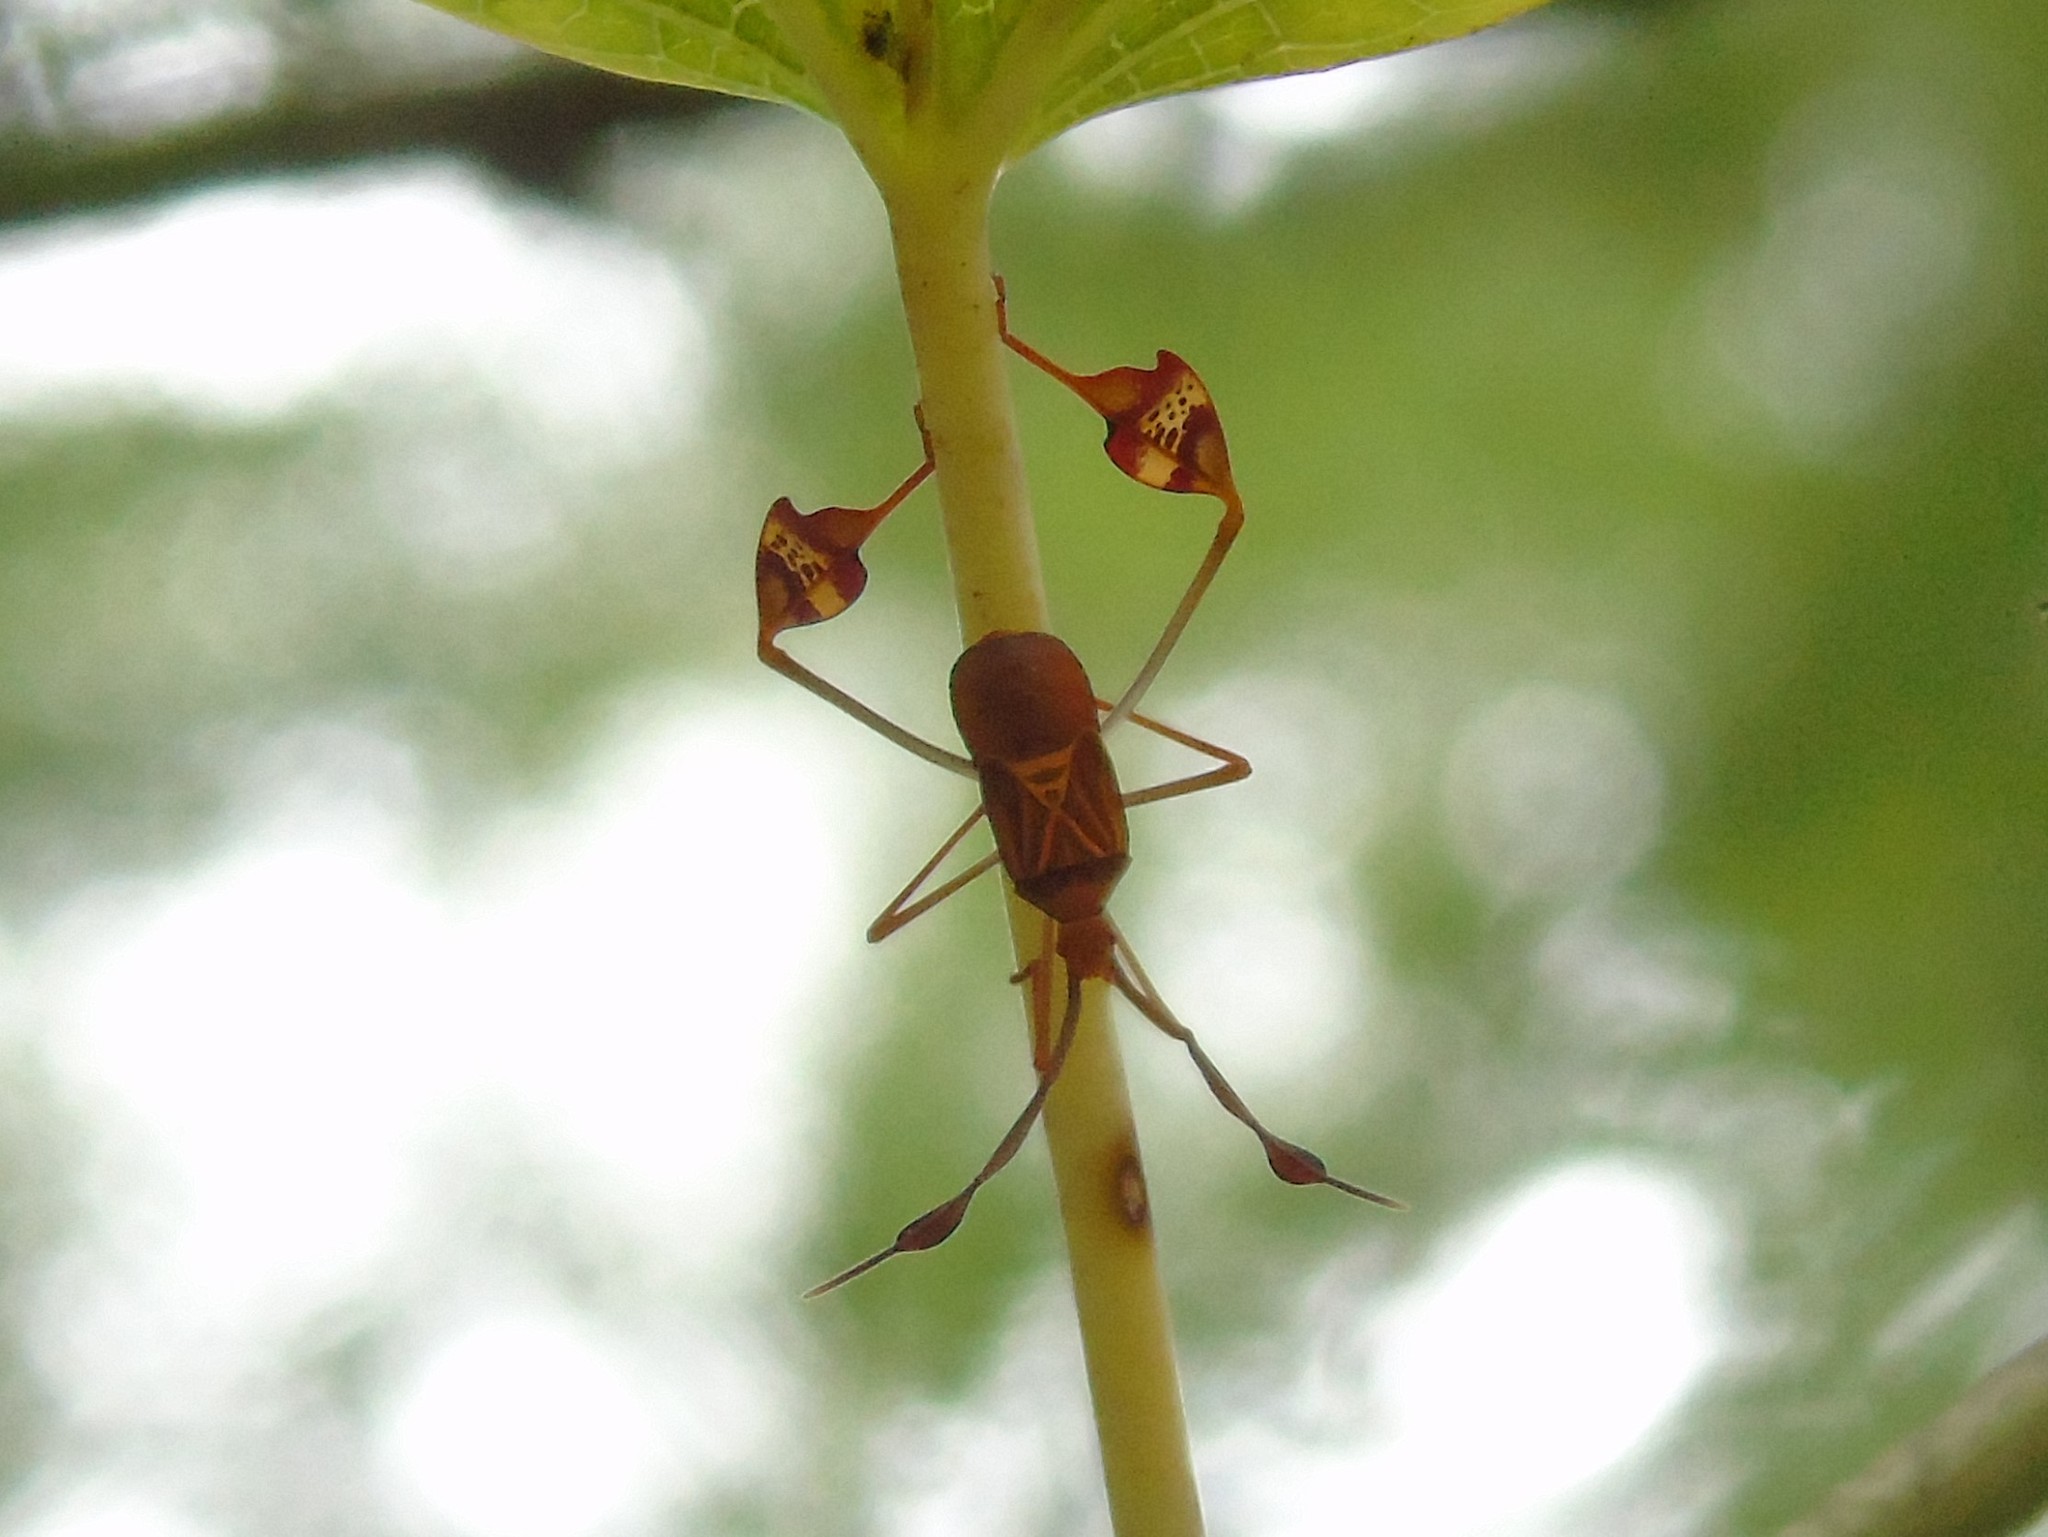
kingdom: Animalia
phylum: Arthropoda
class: Insecta
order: Hemiptera
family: Coreidae
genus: Bitta
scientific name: Bitta
